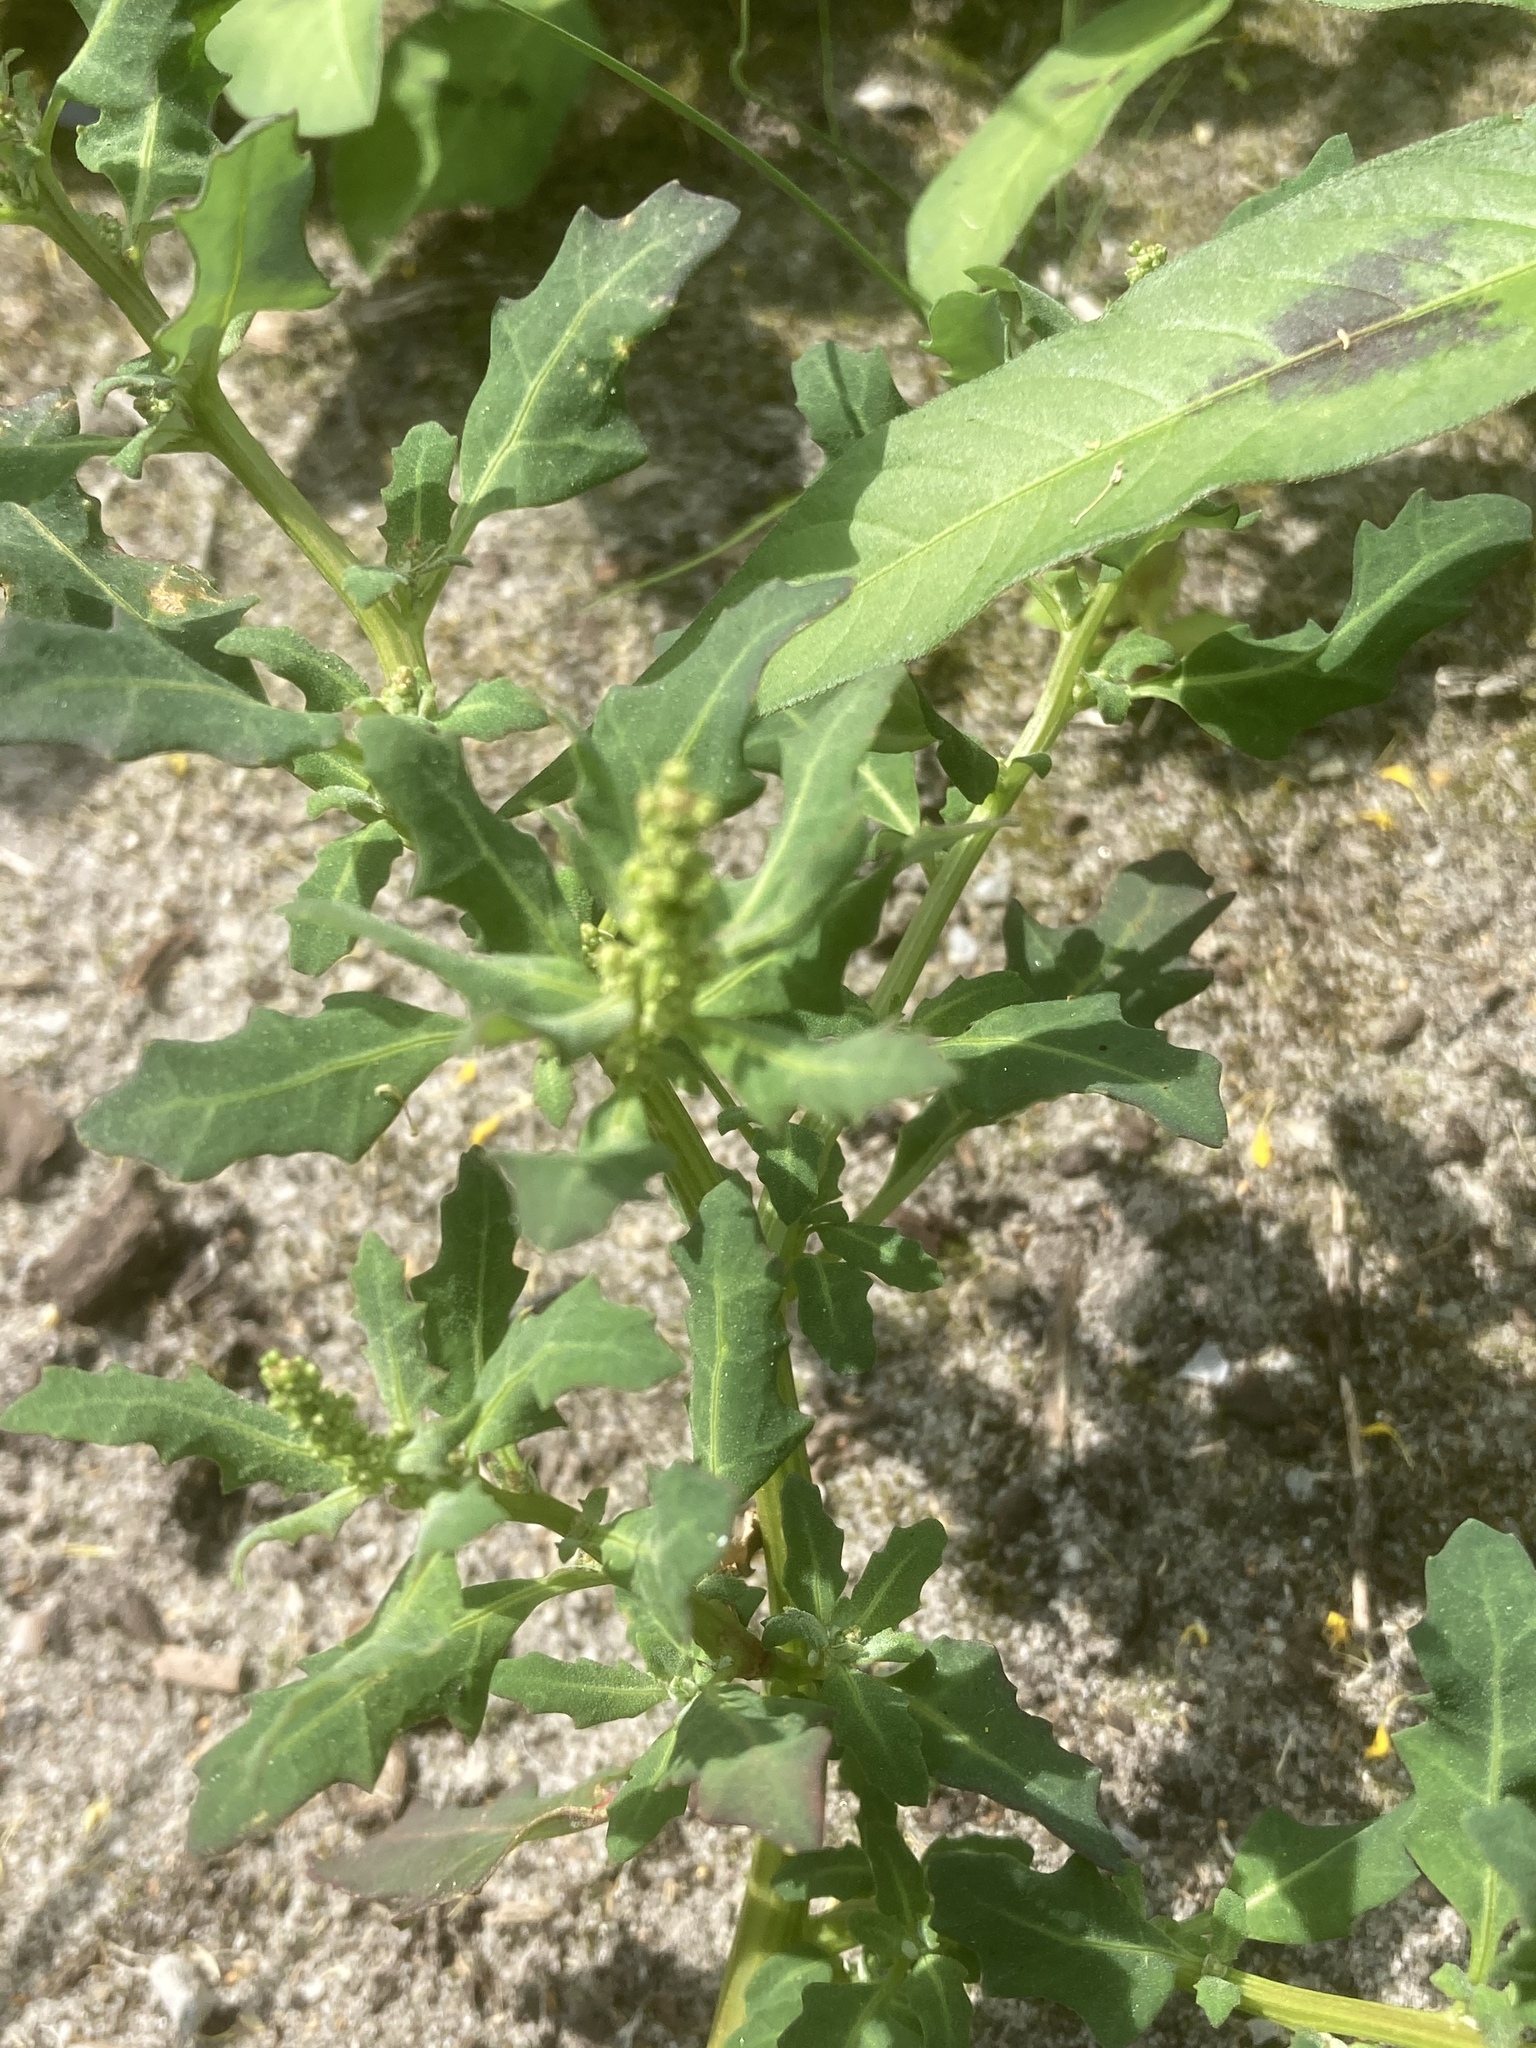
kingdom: Plantae
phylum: Tracheophyta
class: Magnoliopsida
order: Caryophyllales
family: Amaranthaceae
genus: Oxybasis
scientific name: Oxybasis glauca
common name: Glaucous goosefoot
